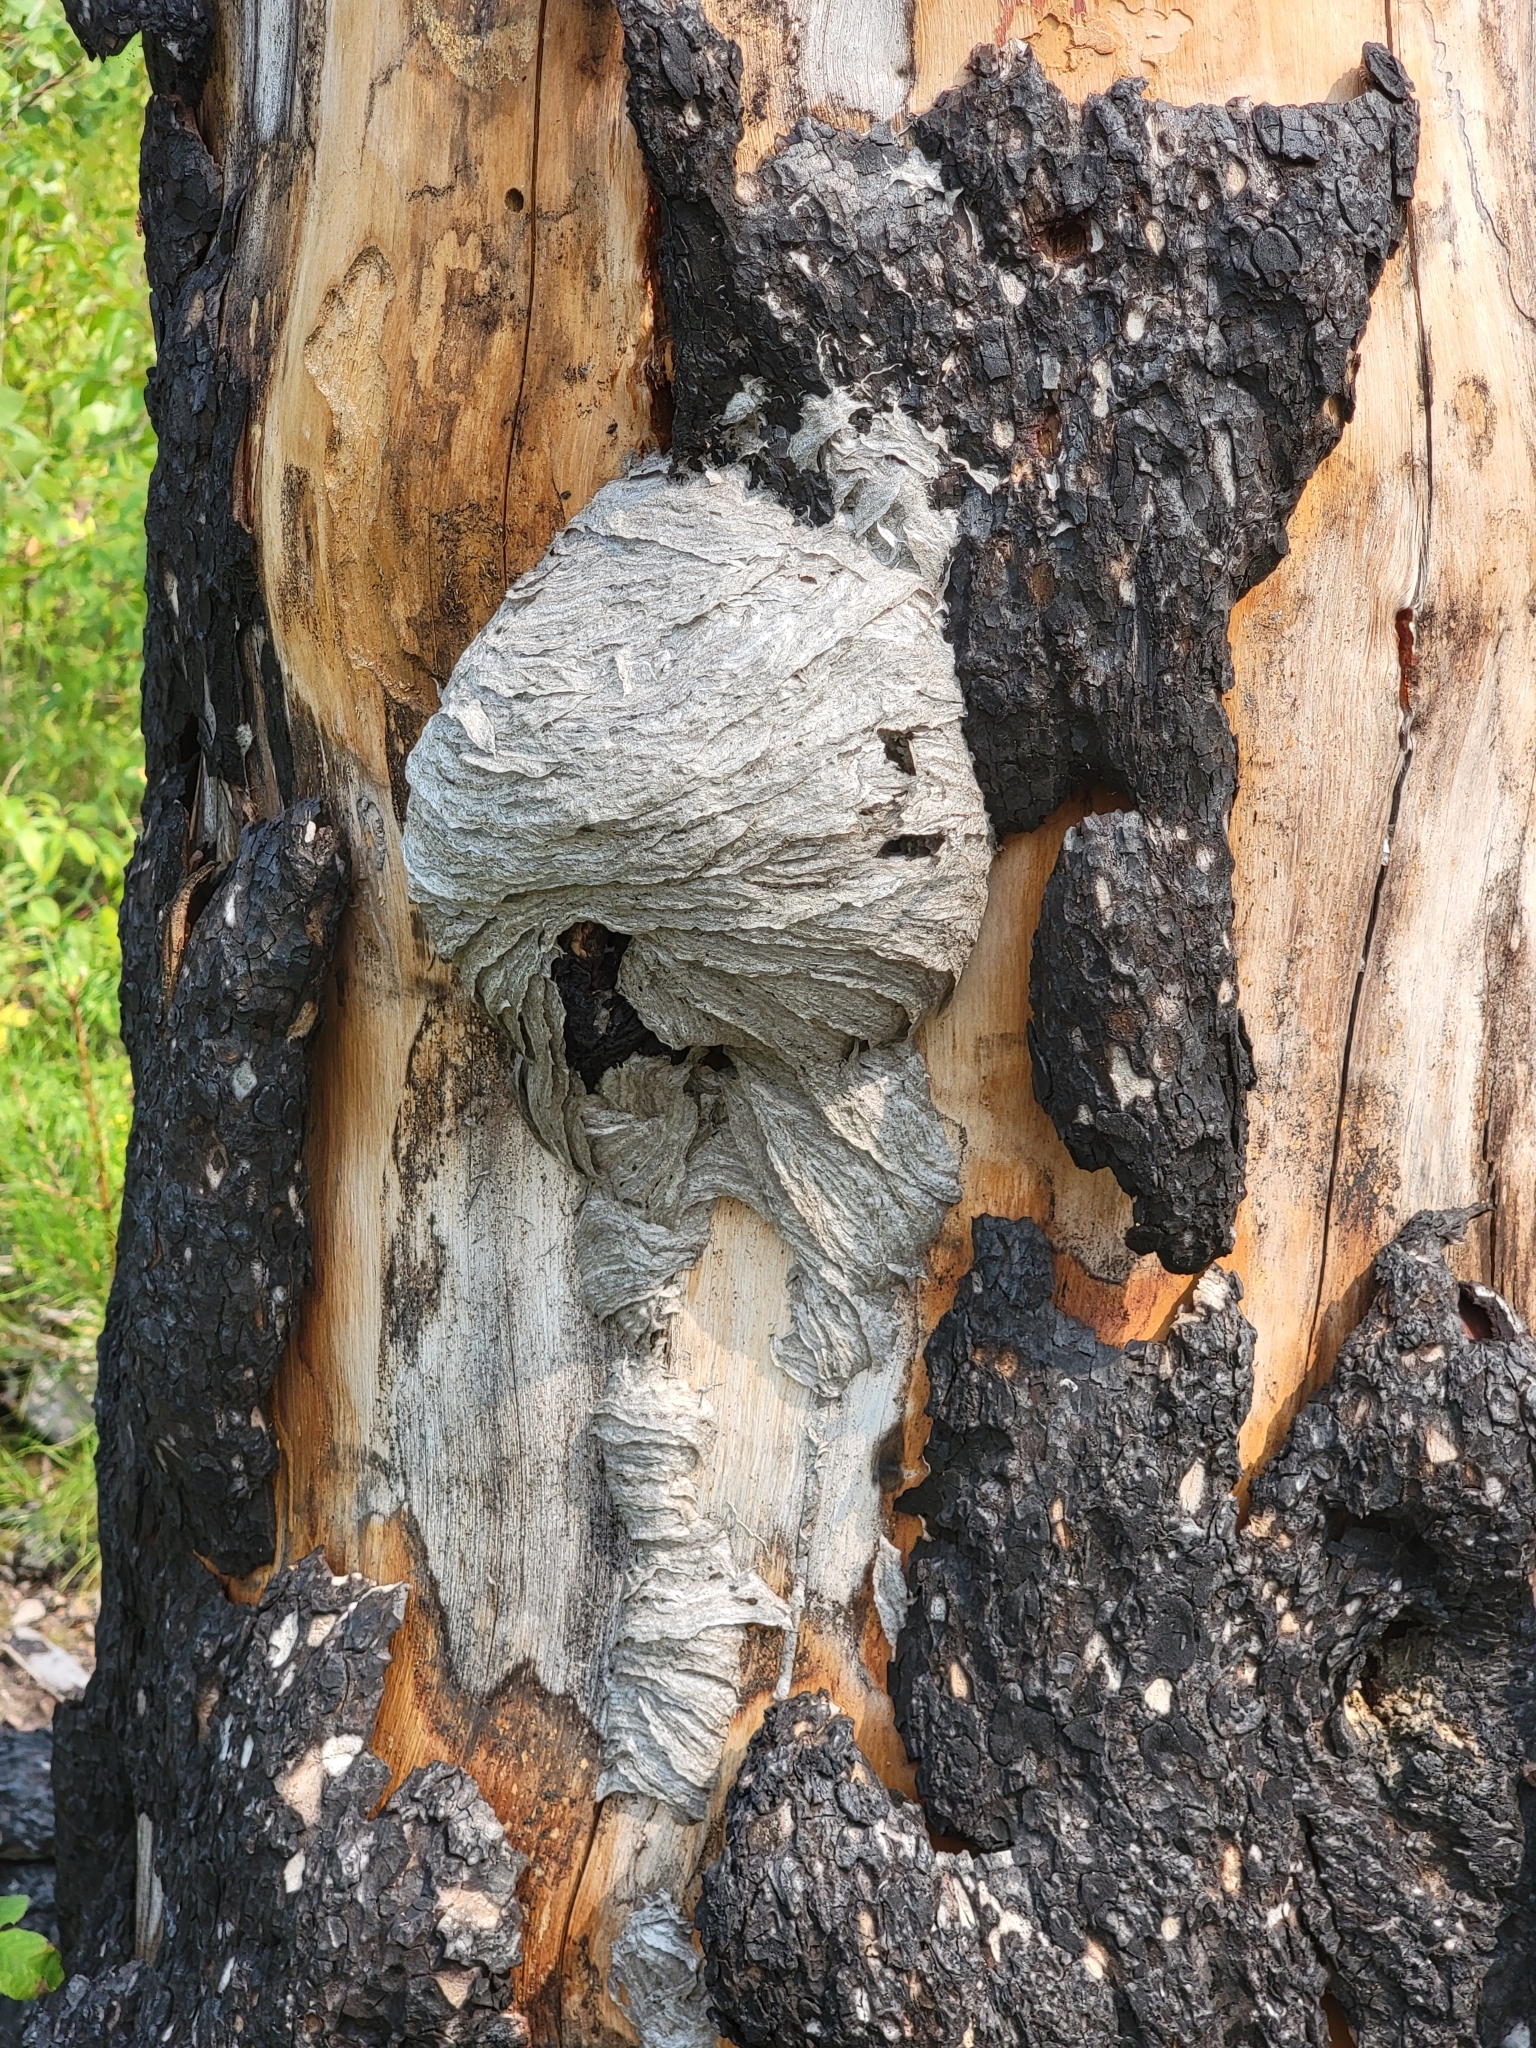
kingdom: Animalia
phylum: Arthropoda
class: Insecta
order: Hymenoptera
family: Vespidae
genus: Dolichovespula
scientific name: Dolichovespula
